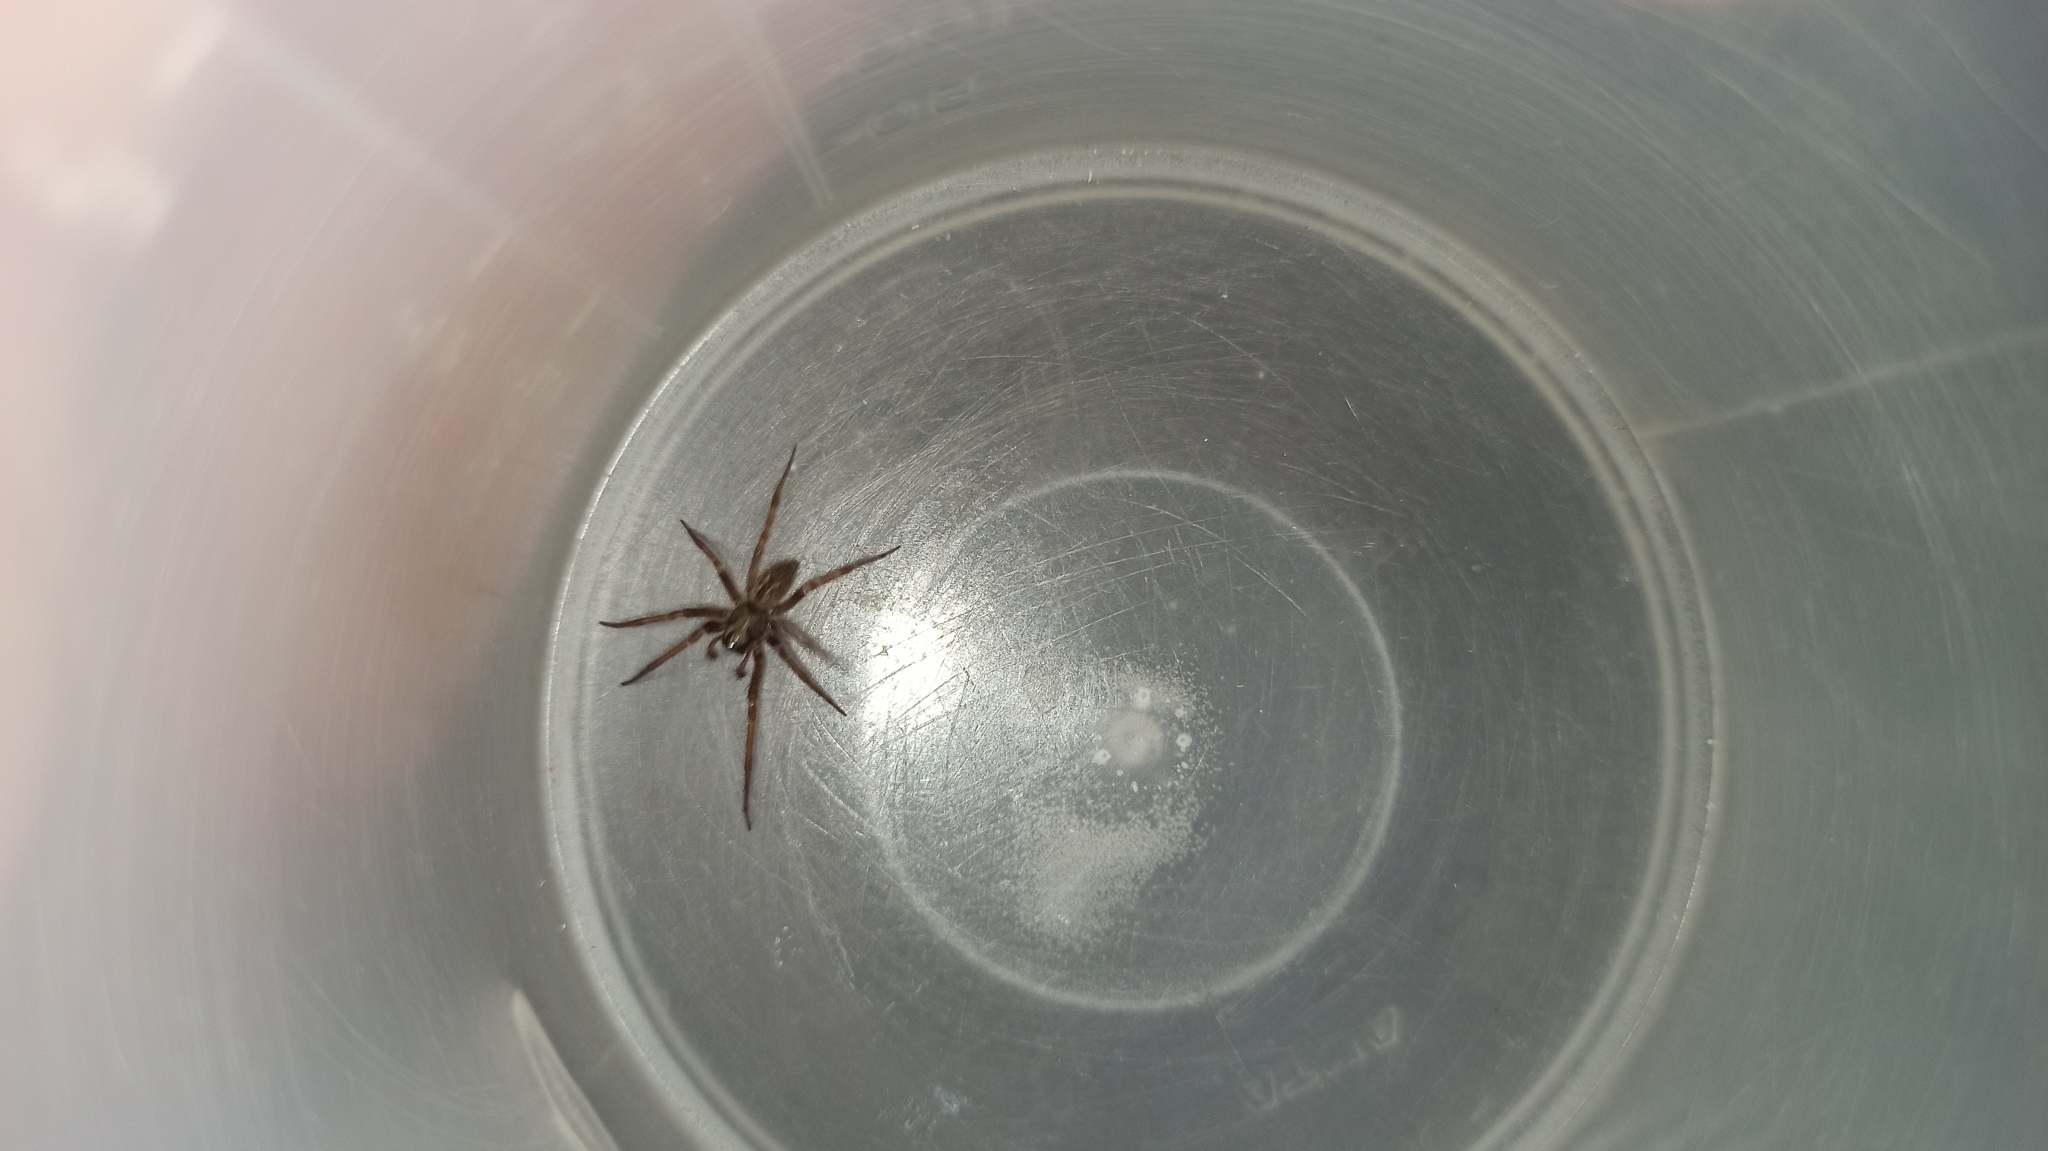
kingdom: Animalia
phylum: Arthropoda
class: Arachnida
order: Araneae
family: Desidae
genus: Badumna
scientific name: Badumna longinqua
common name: Gray house spider
